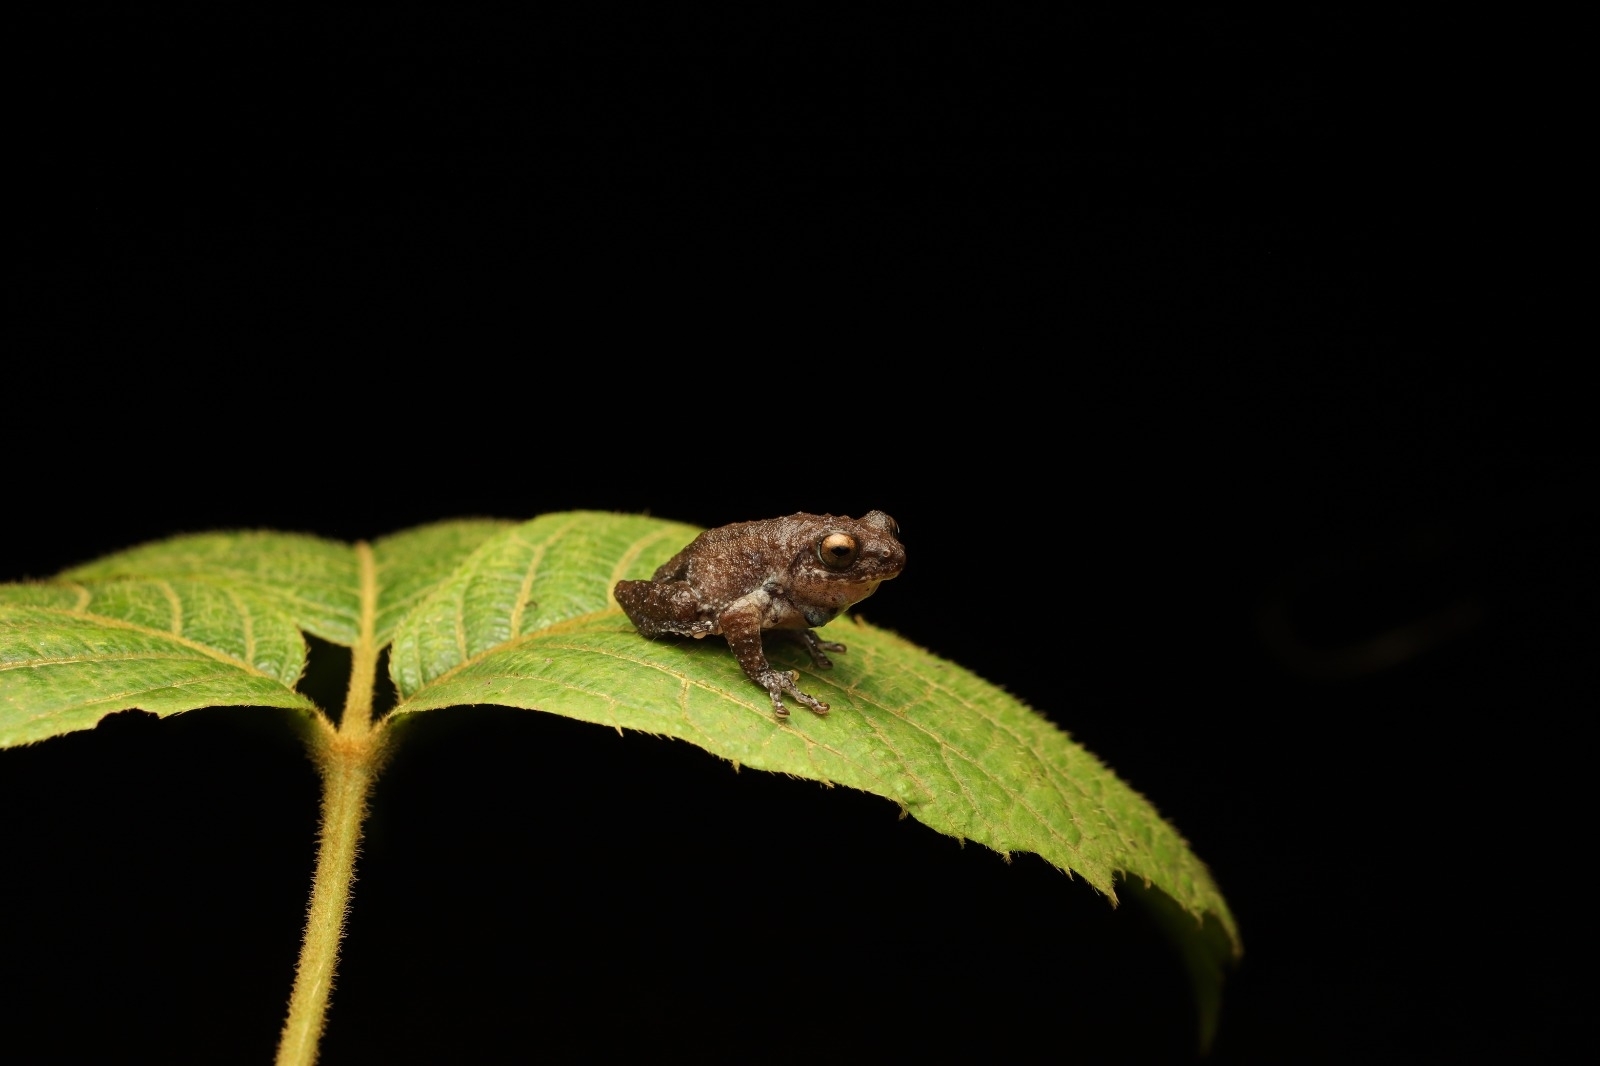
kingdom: Animalia
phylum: Chordata
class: Amphibia
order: Anura
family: Rhacophoridae
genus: Raorchestes
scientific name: Raorchestes bombayensis
